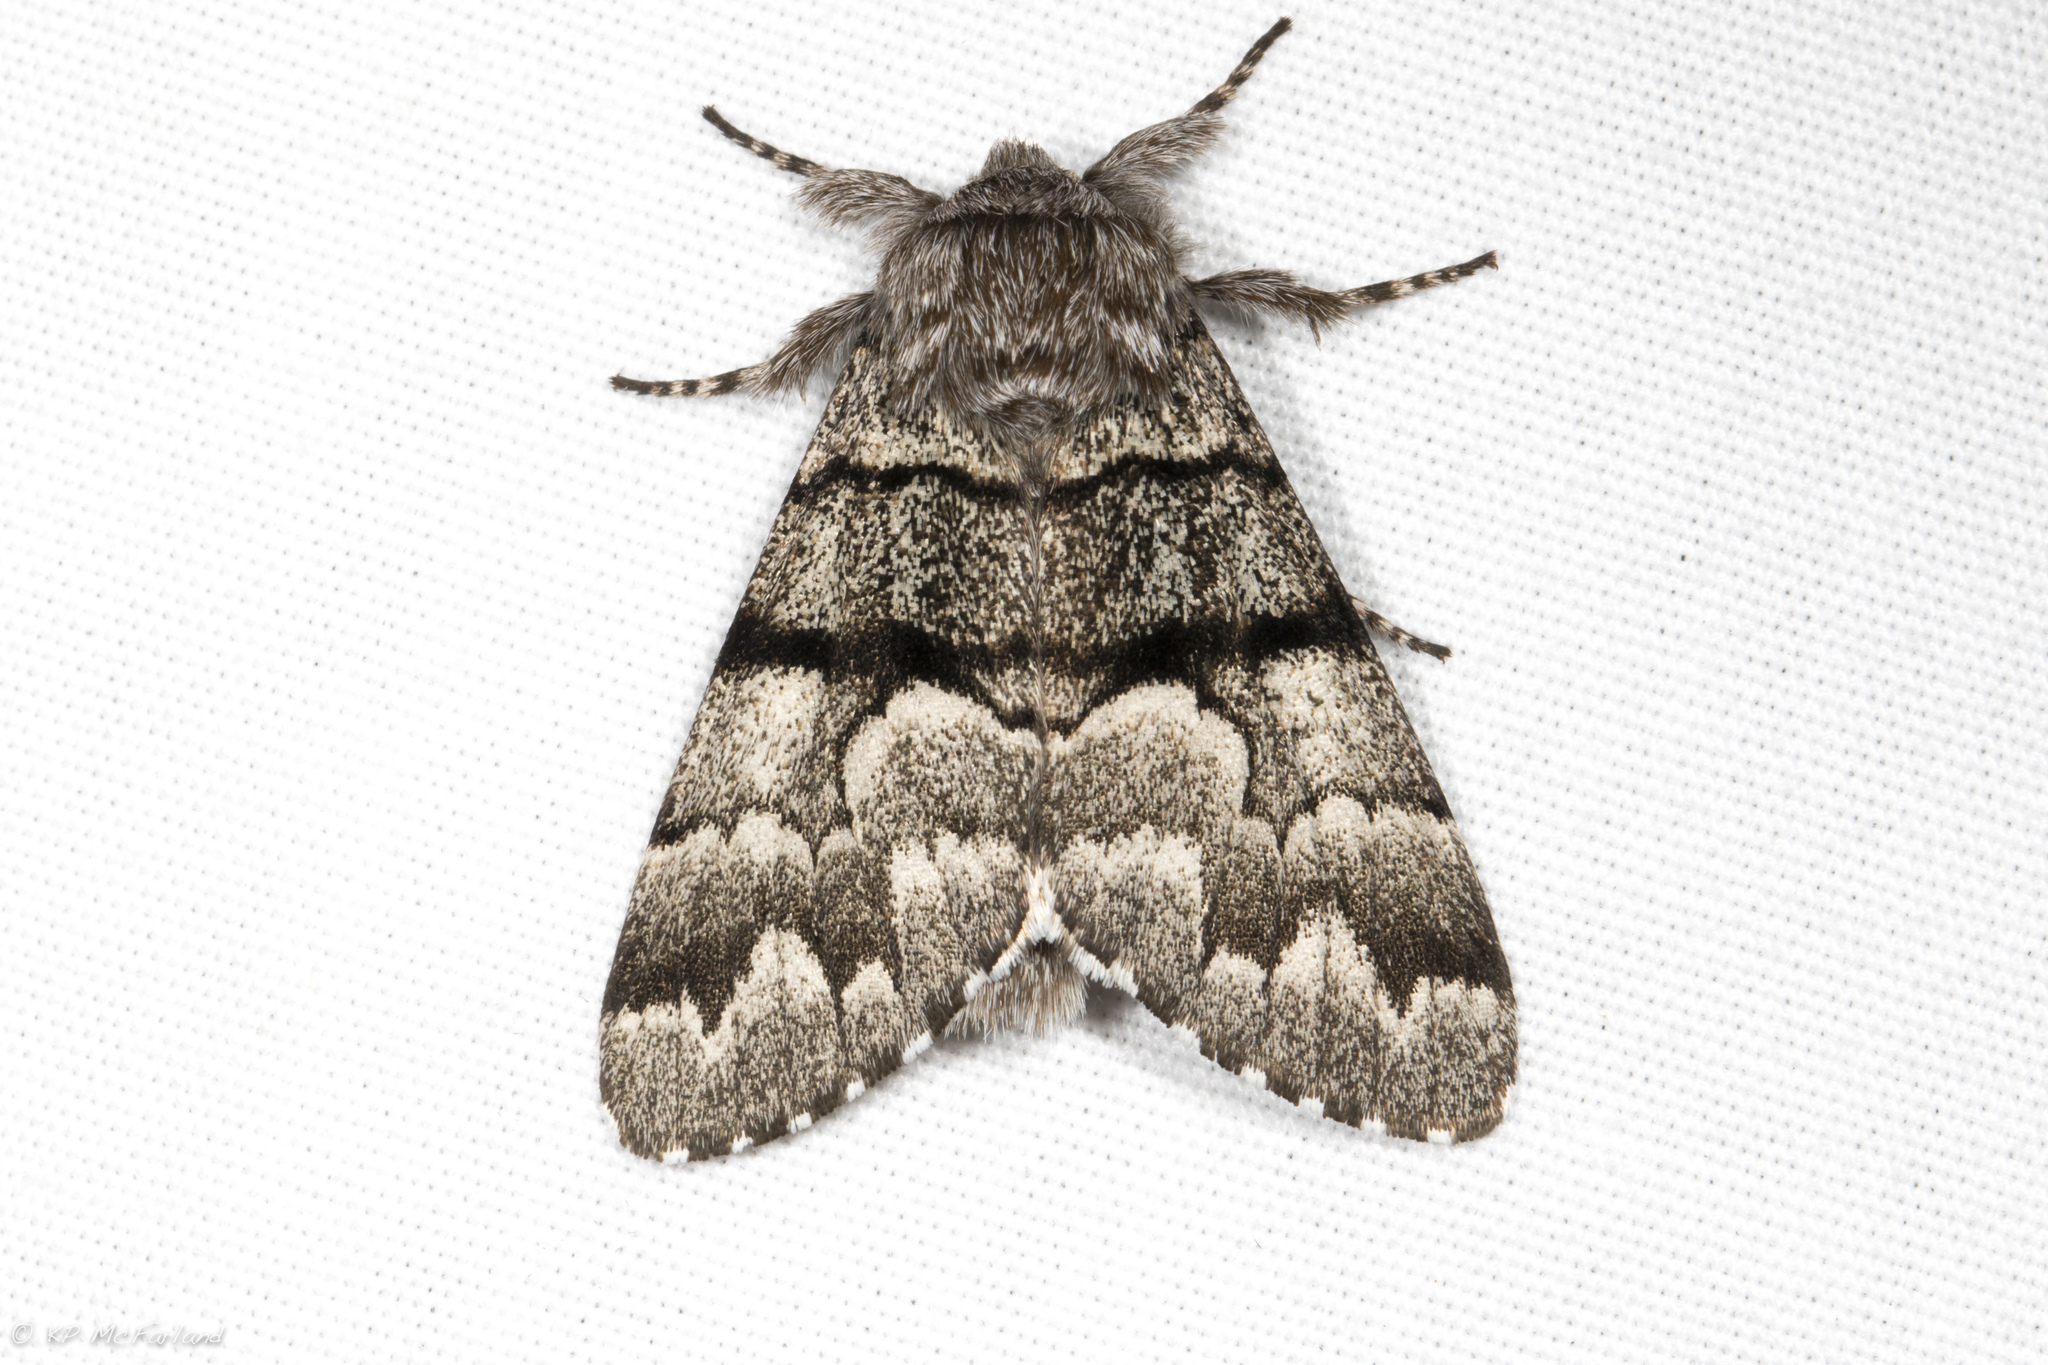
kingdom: Animalia
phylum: Arthropoda
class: Insecta
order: Lepidoptera
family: Noctuidae
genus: Panthea
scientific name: Panthea furcilla
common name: Eastern panthea moth
